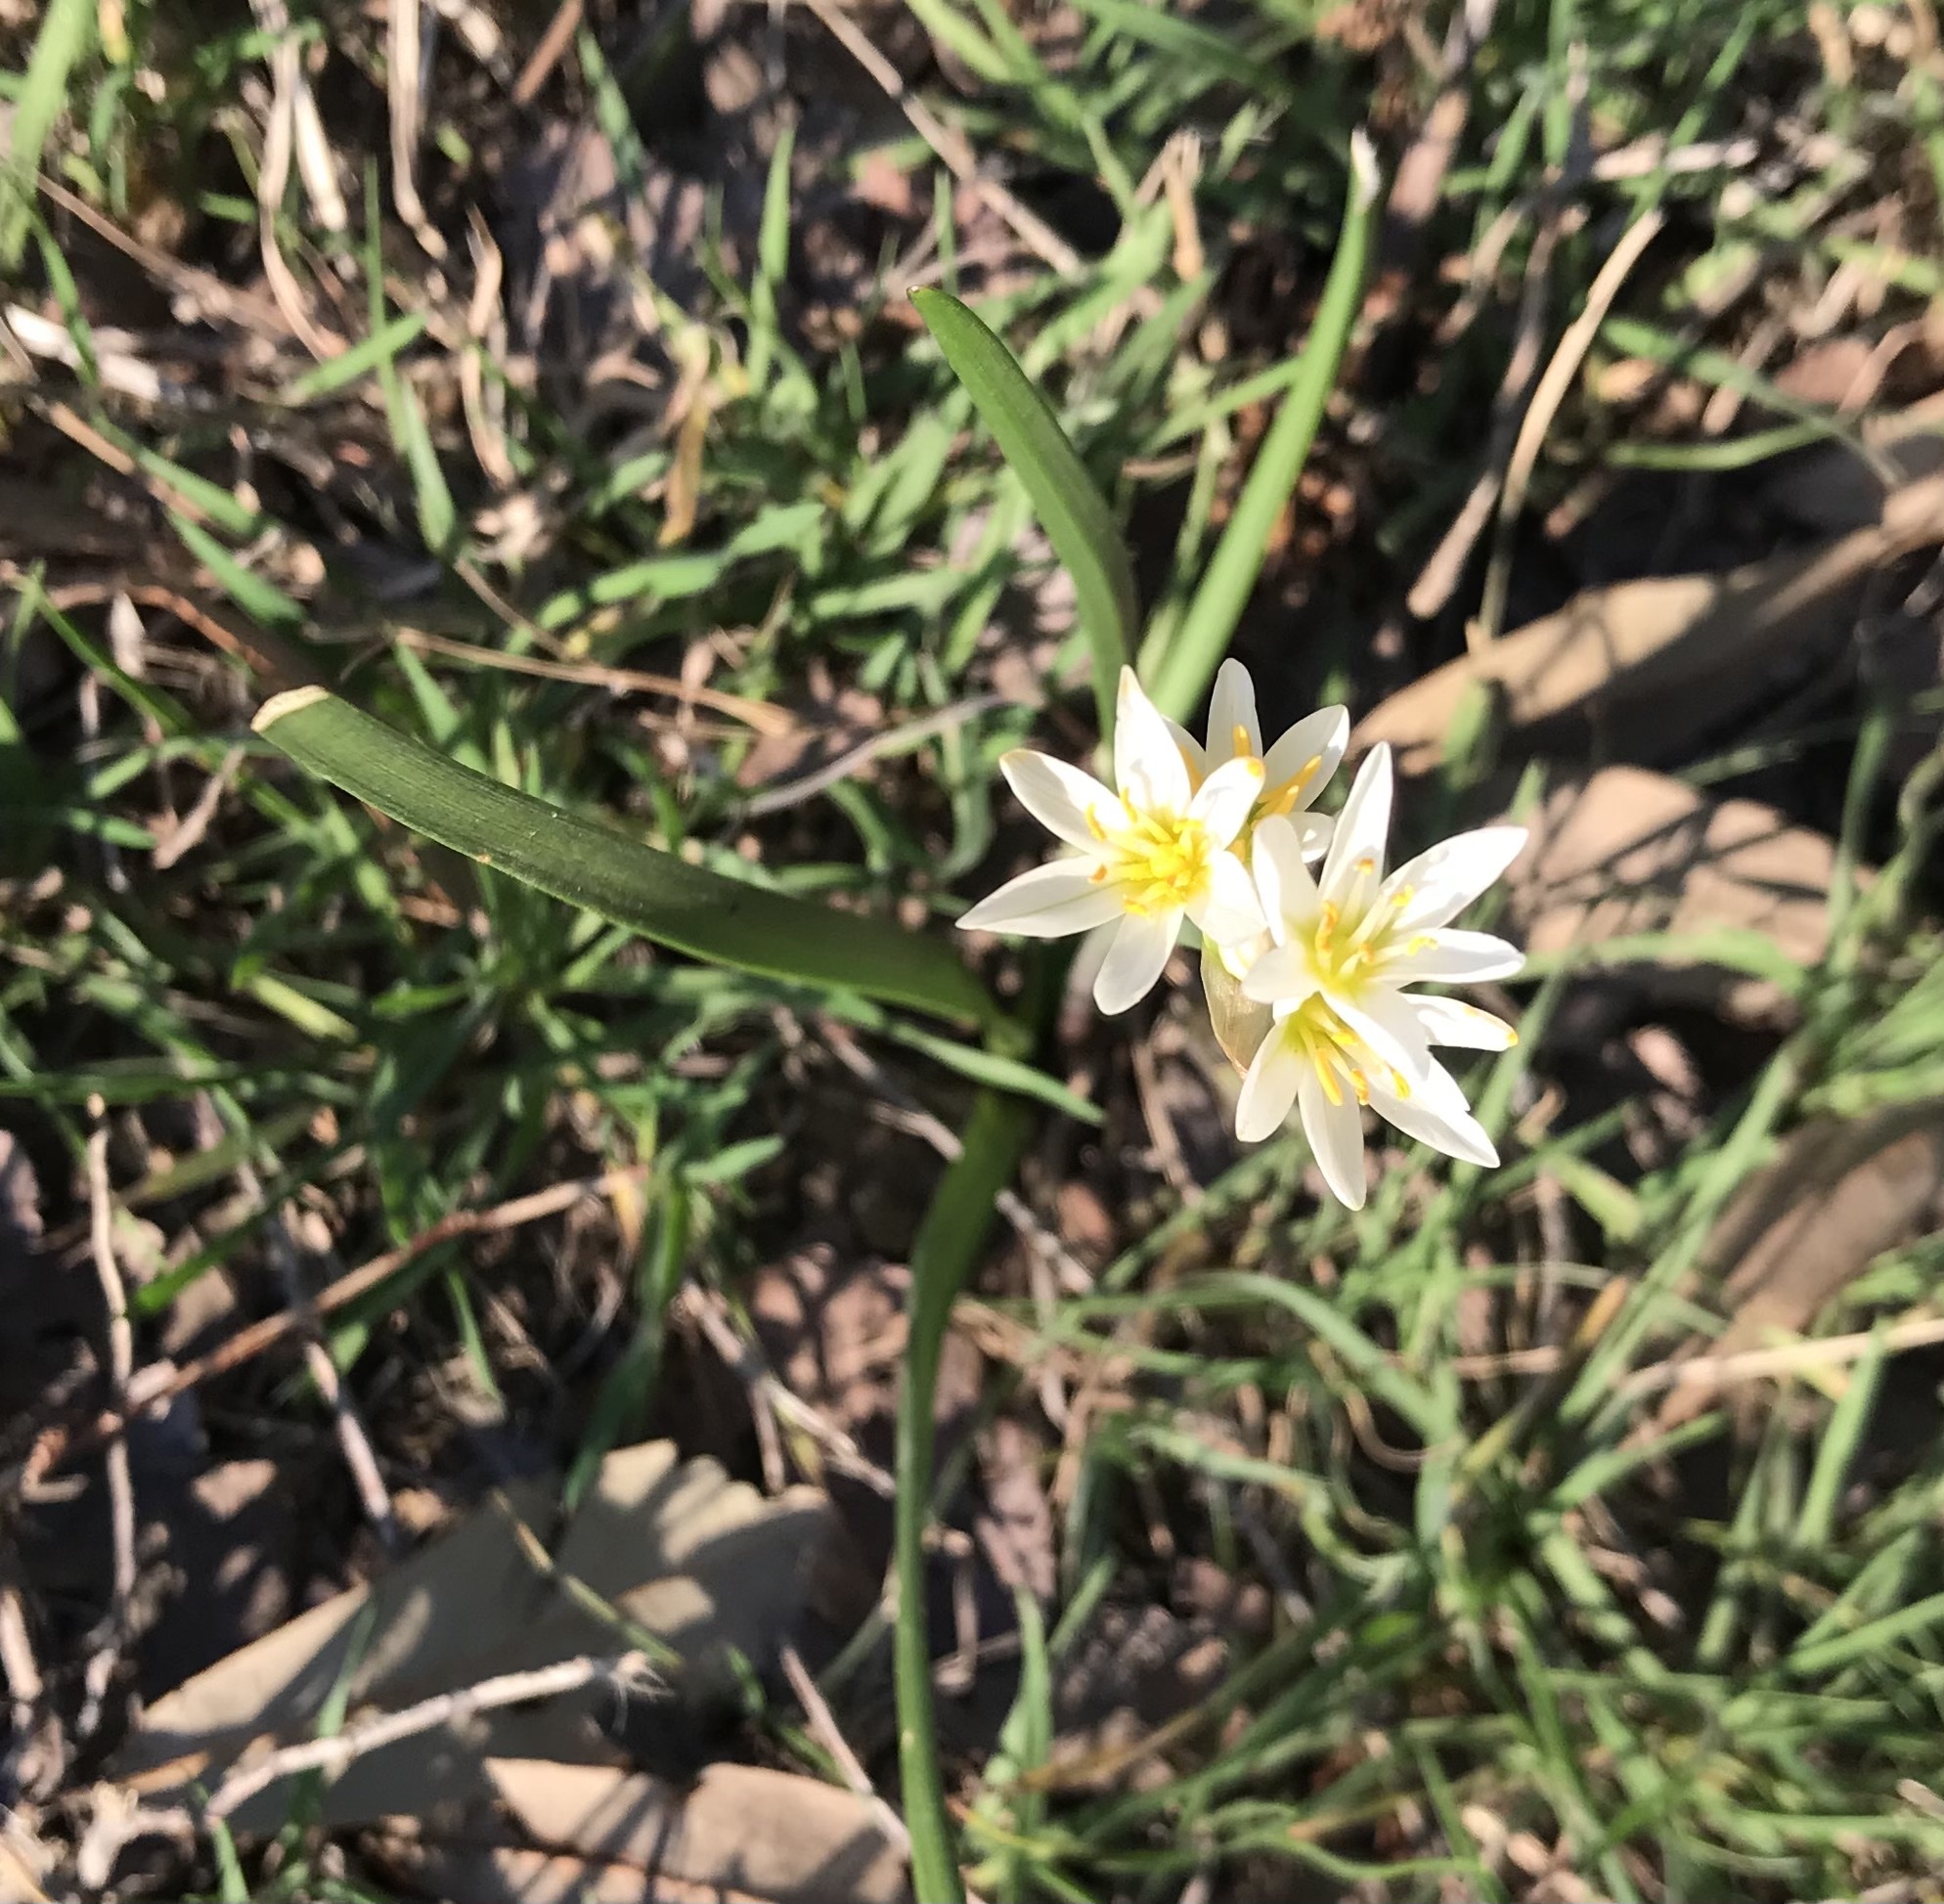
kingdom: Plantae
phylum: Tracheophyta
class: Liliopsida
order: Asparagales
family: Amaryllidaceae
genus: Nothoscordum
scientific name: Nothoscordum bivalve
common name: Crow-poison
